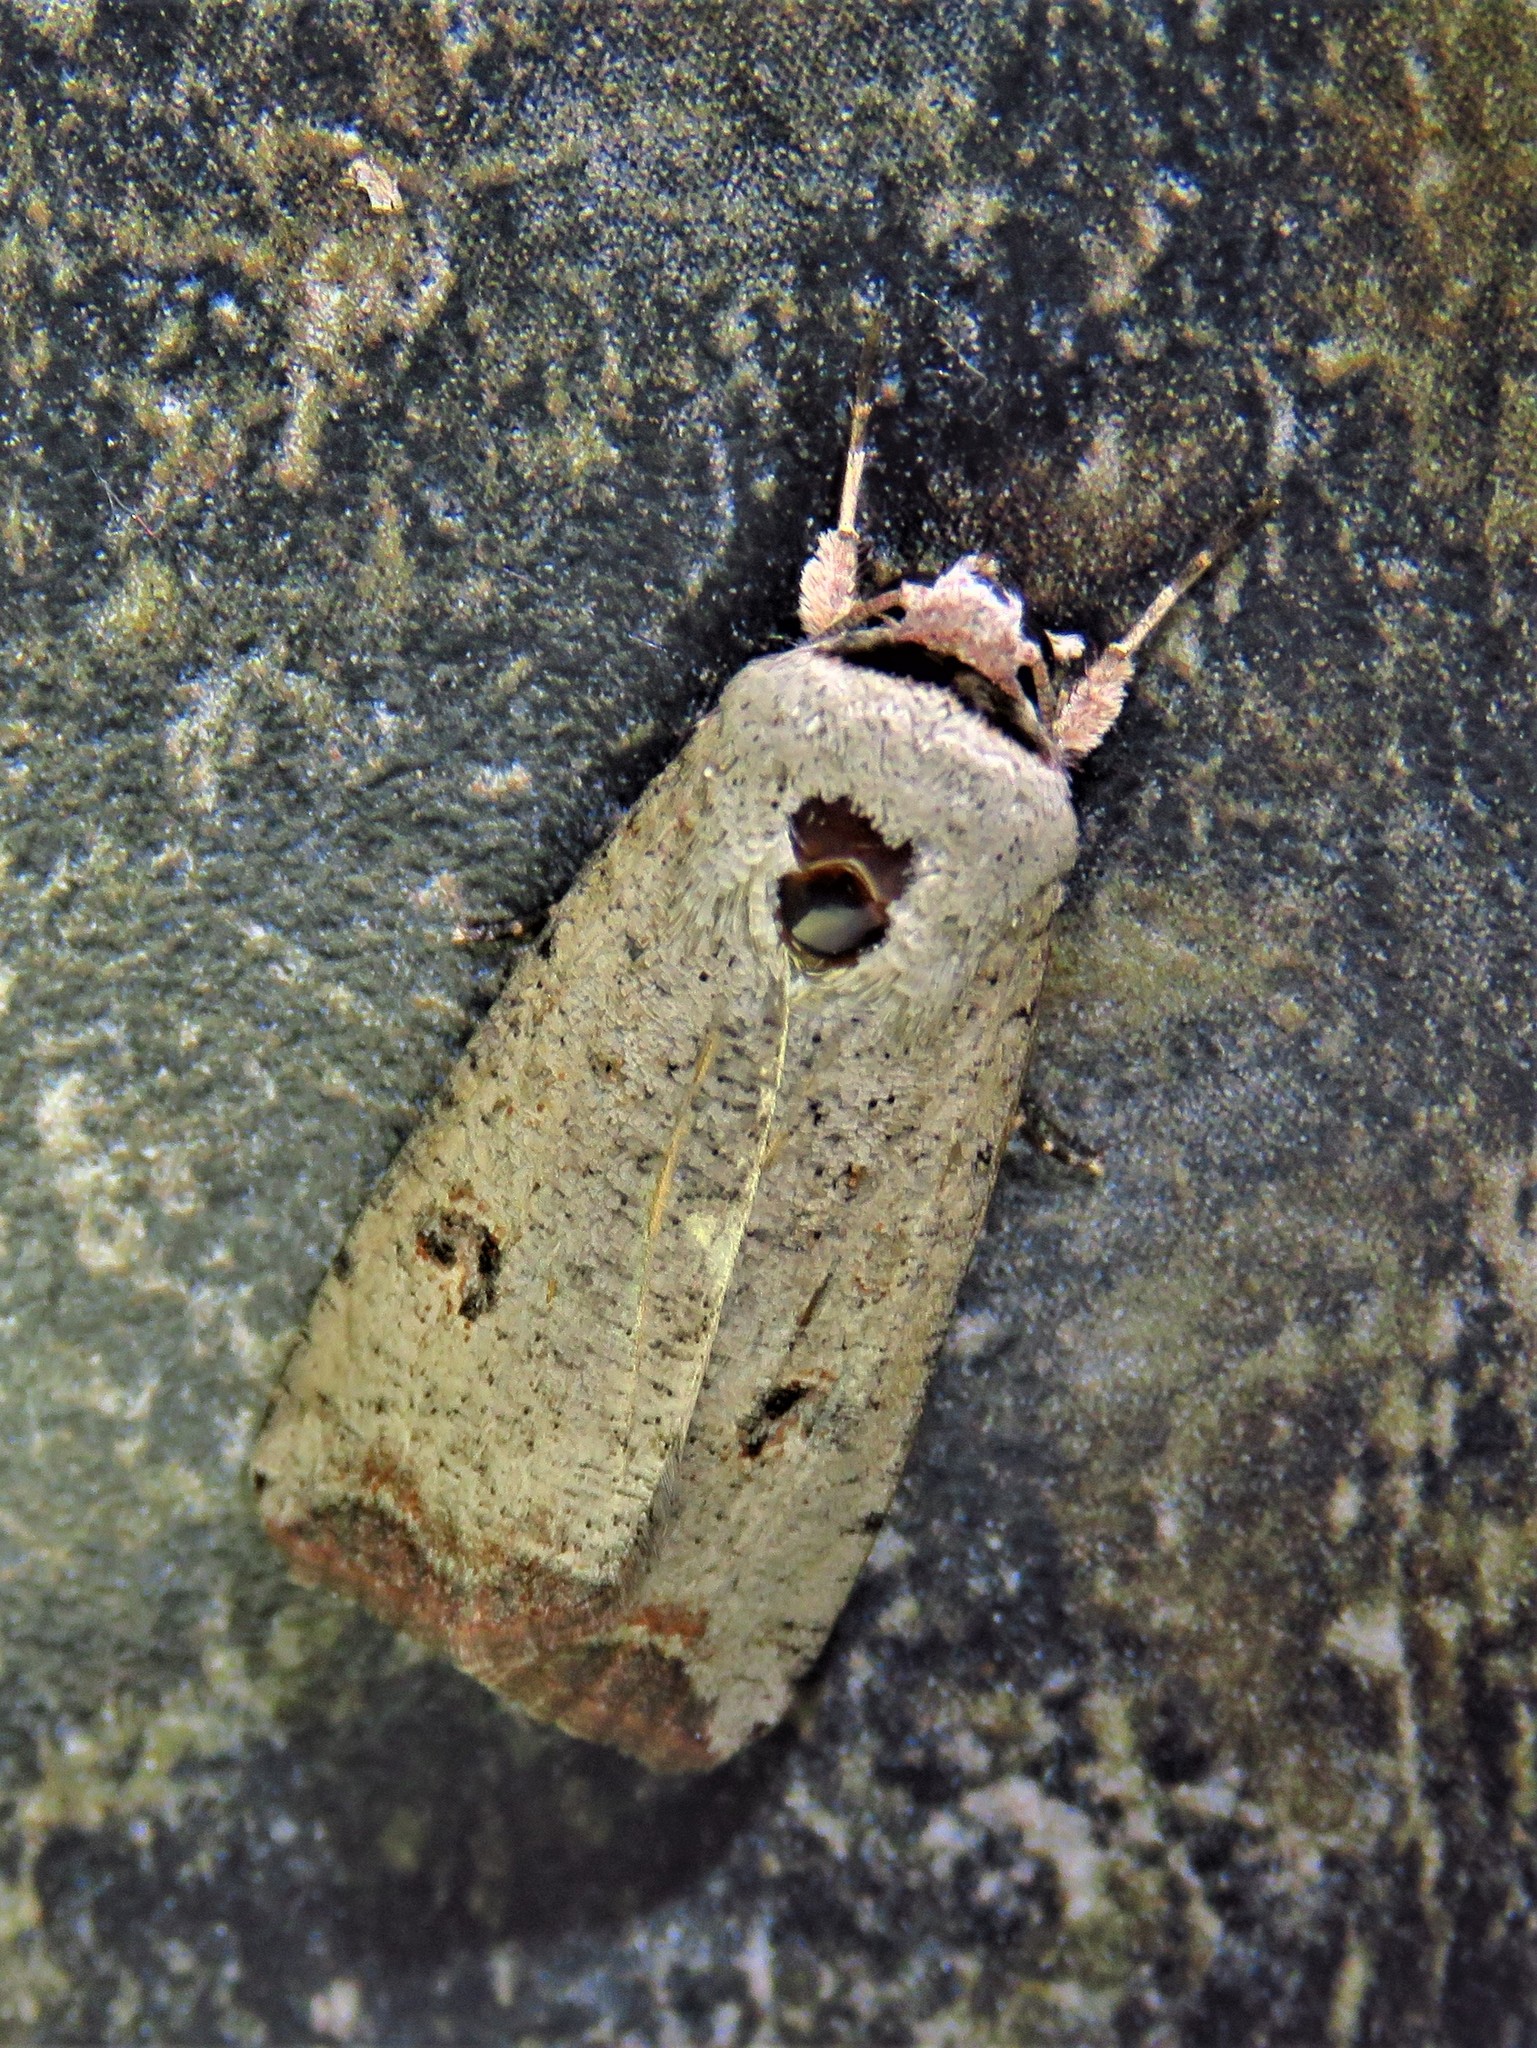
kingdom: Animalia
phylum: Arthropoda
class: Insecta
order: Lepidoptera
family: Noctuidae
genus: Anicla
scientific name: Anicla infecta
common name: Green cutworm
